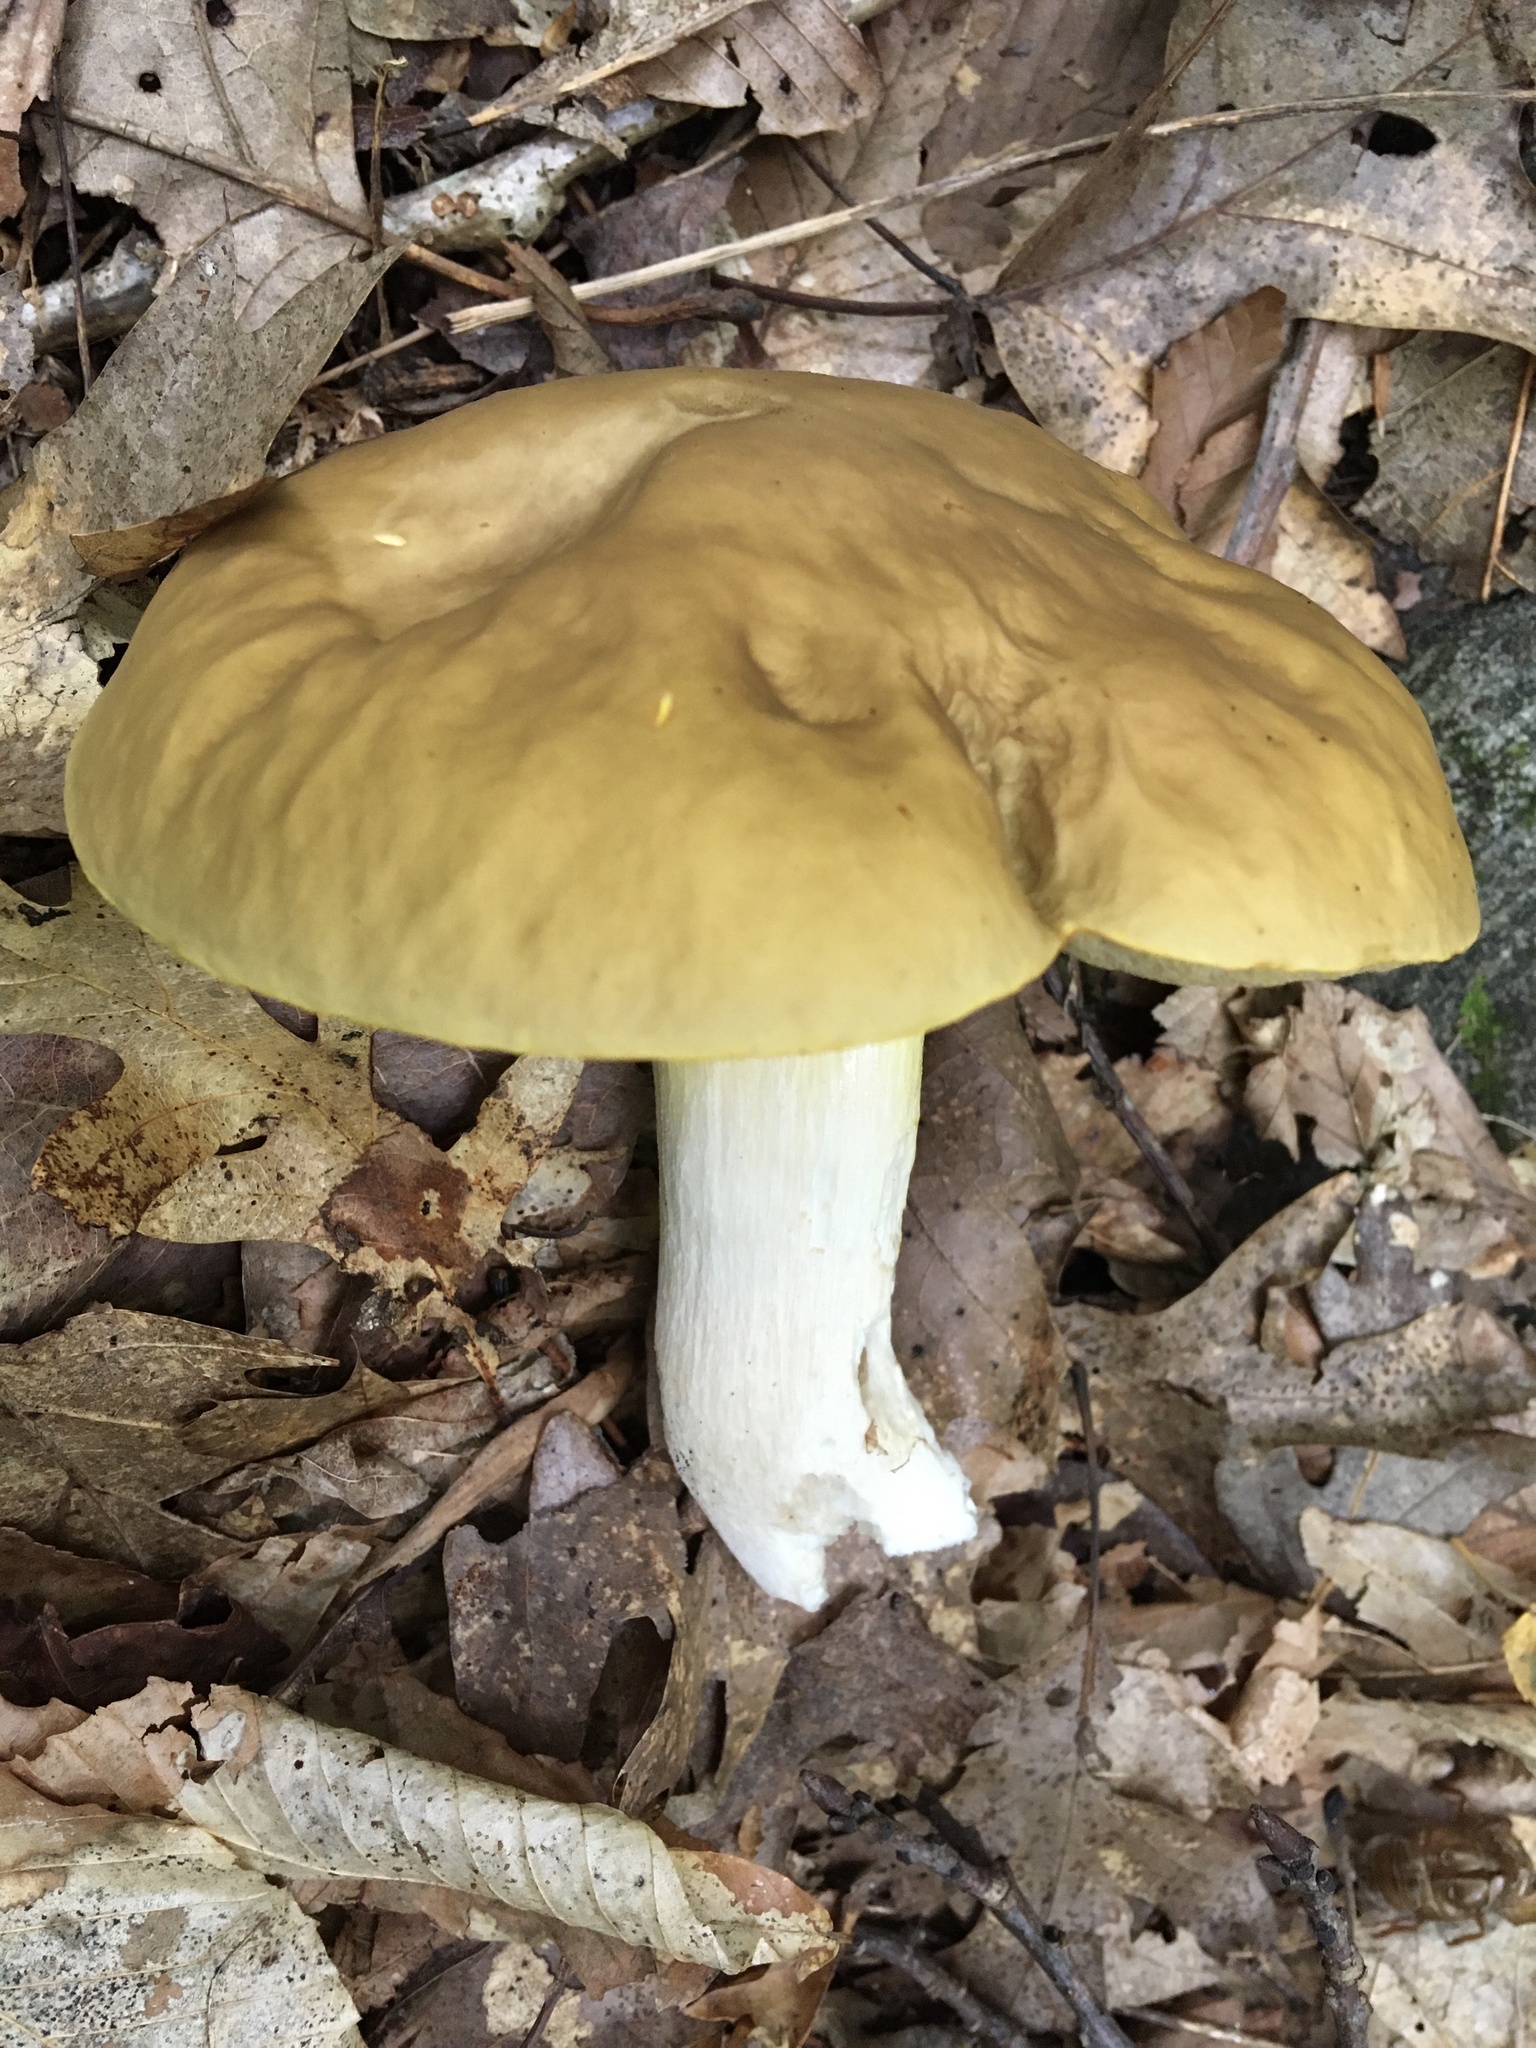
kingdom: Fungi
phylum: Basidiomycota
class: Agaricomycetes
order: Boletales
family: Boletaceae
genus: Boletus
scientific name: Boletus gertrudiae
